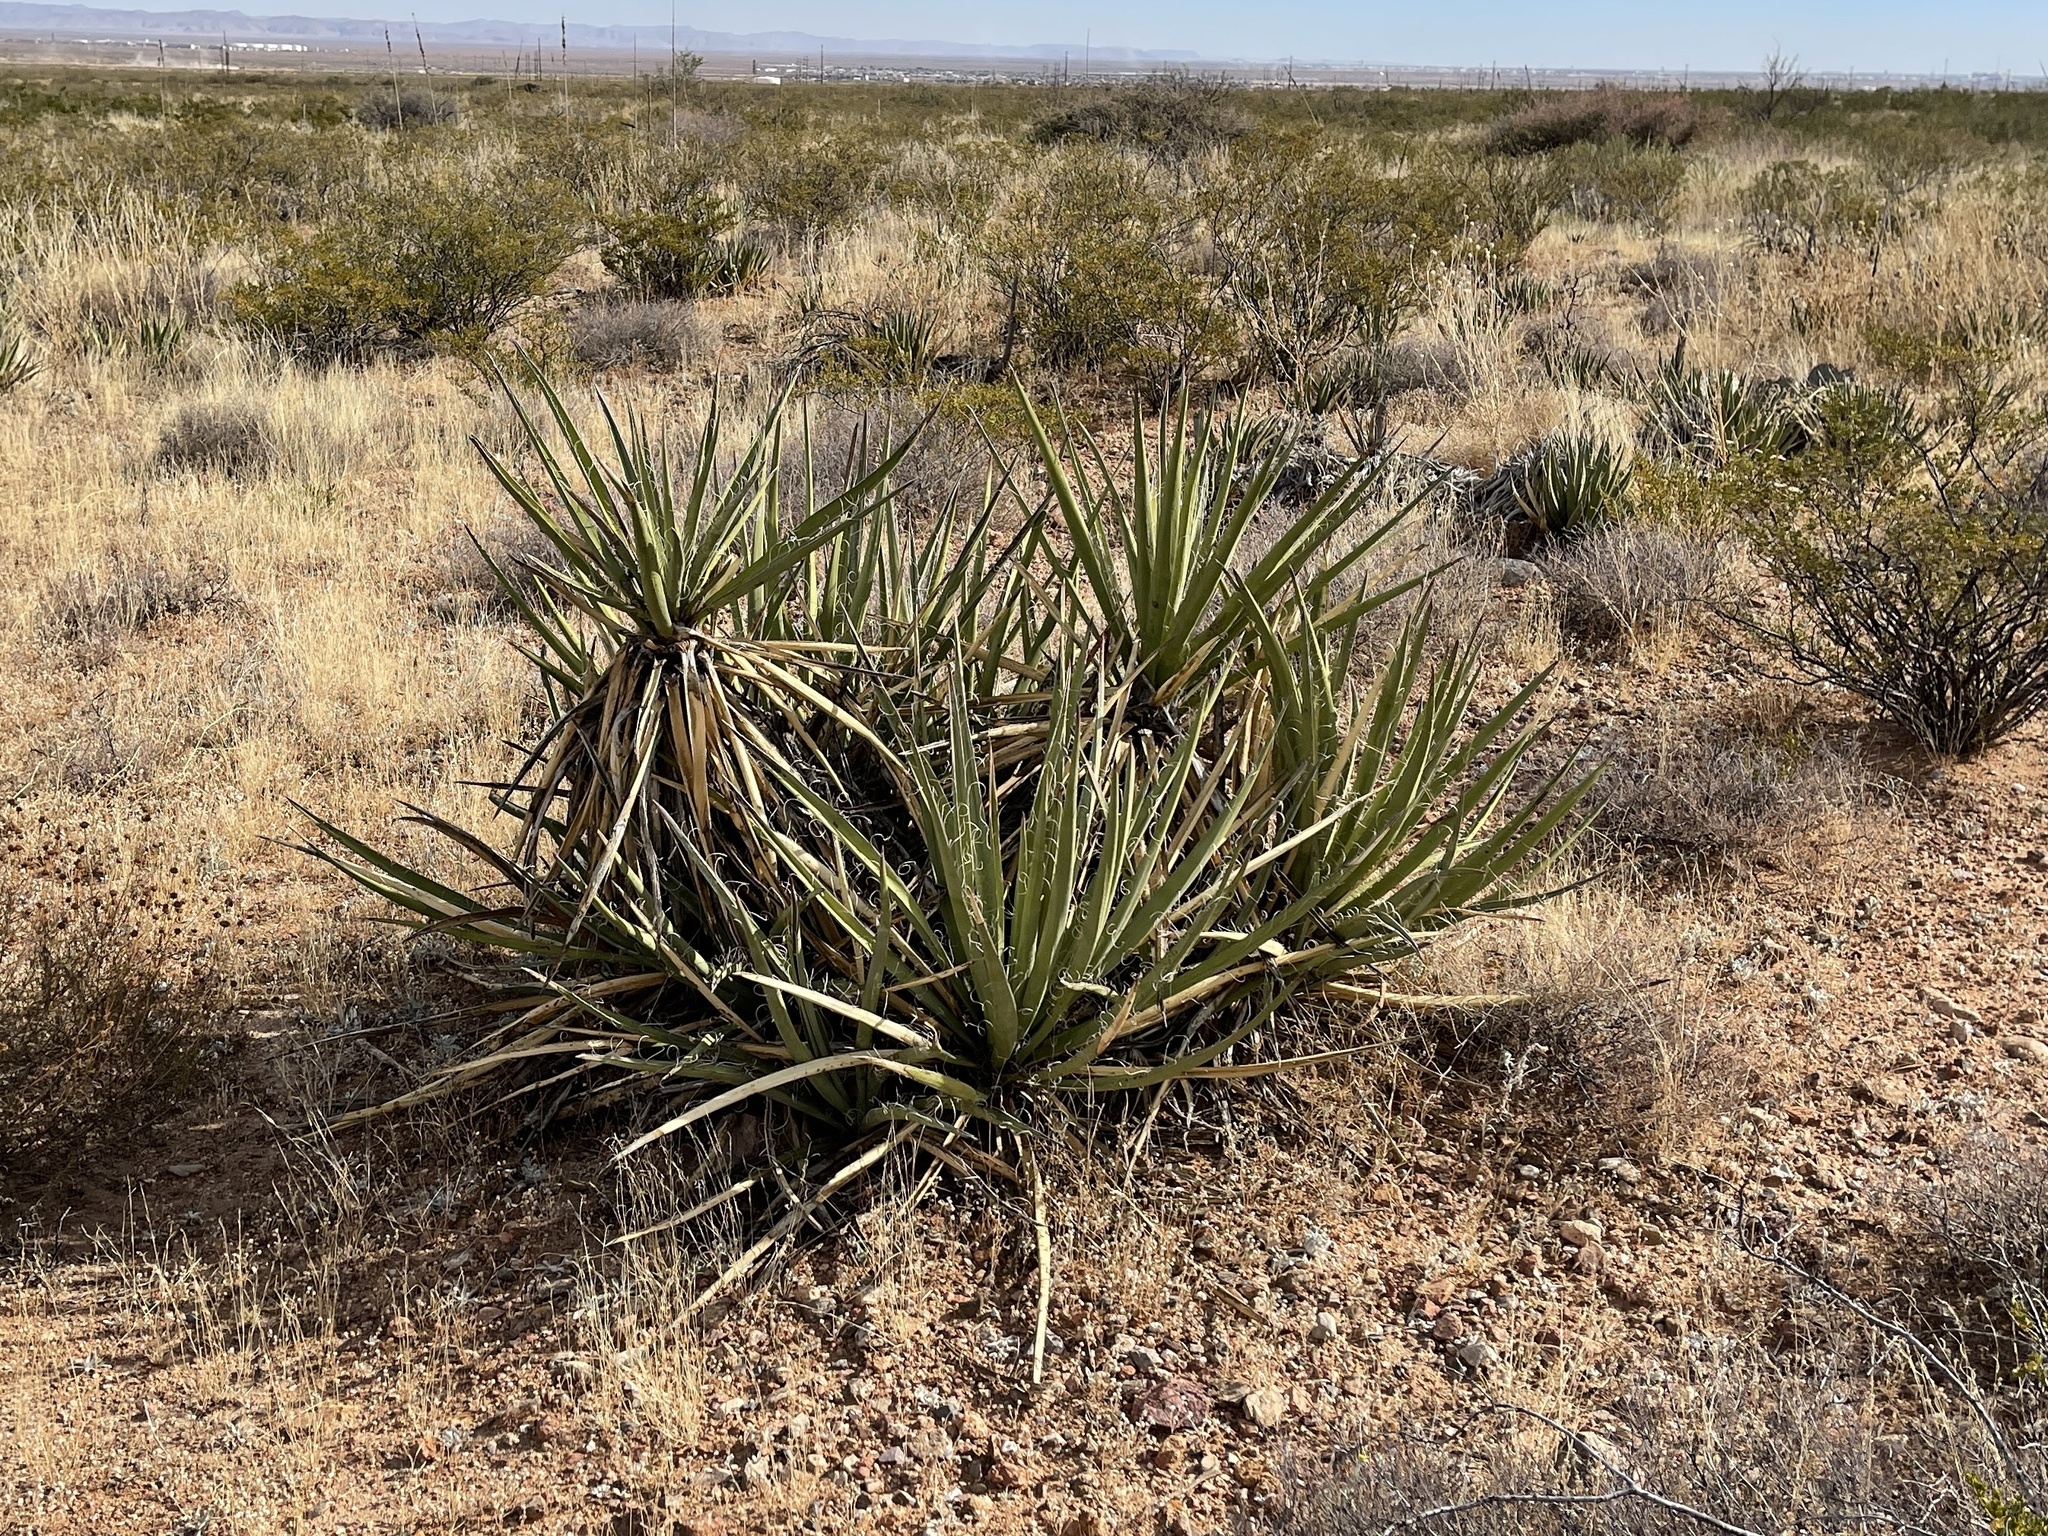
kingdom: Plantae
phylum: Tracheophyta
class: Liliopsida
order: Asparagales
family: Asparagaceae
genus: Yucca
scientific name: Yucca baccata
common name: Banana yucca
